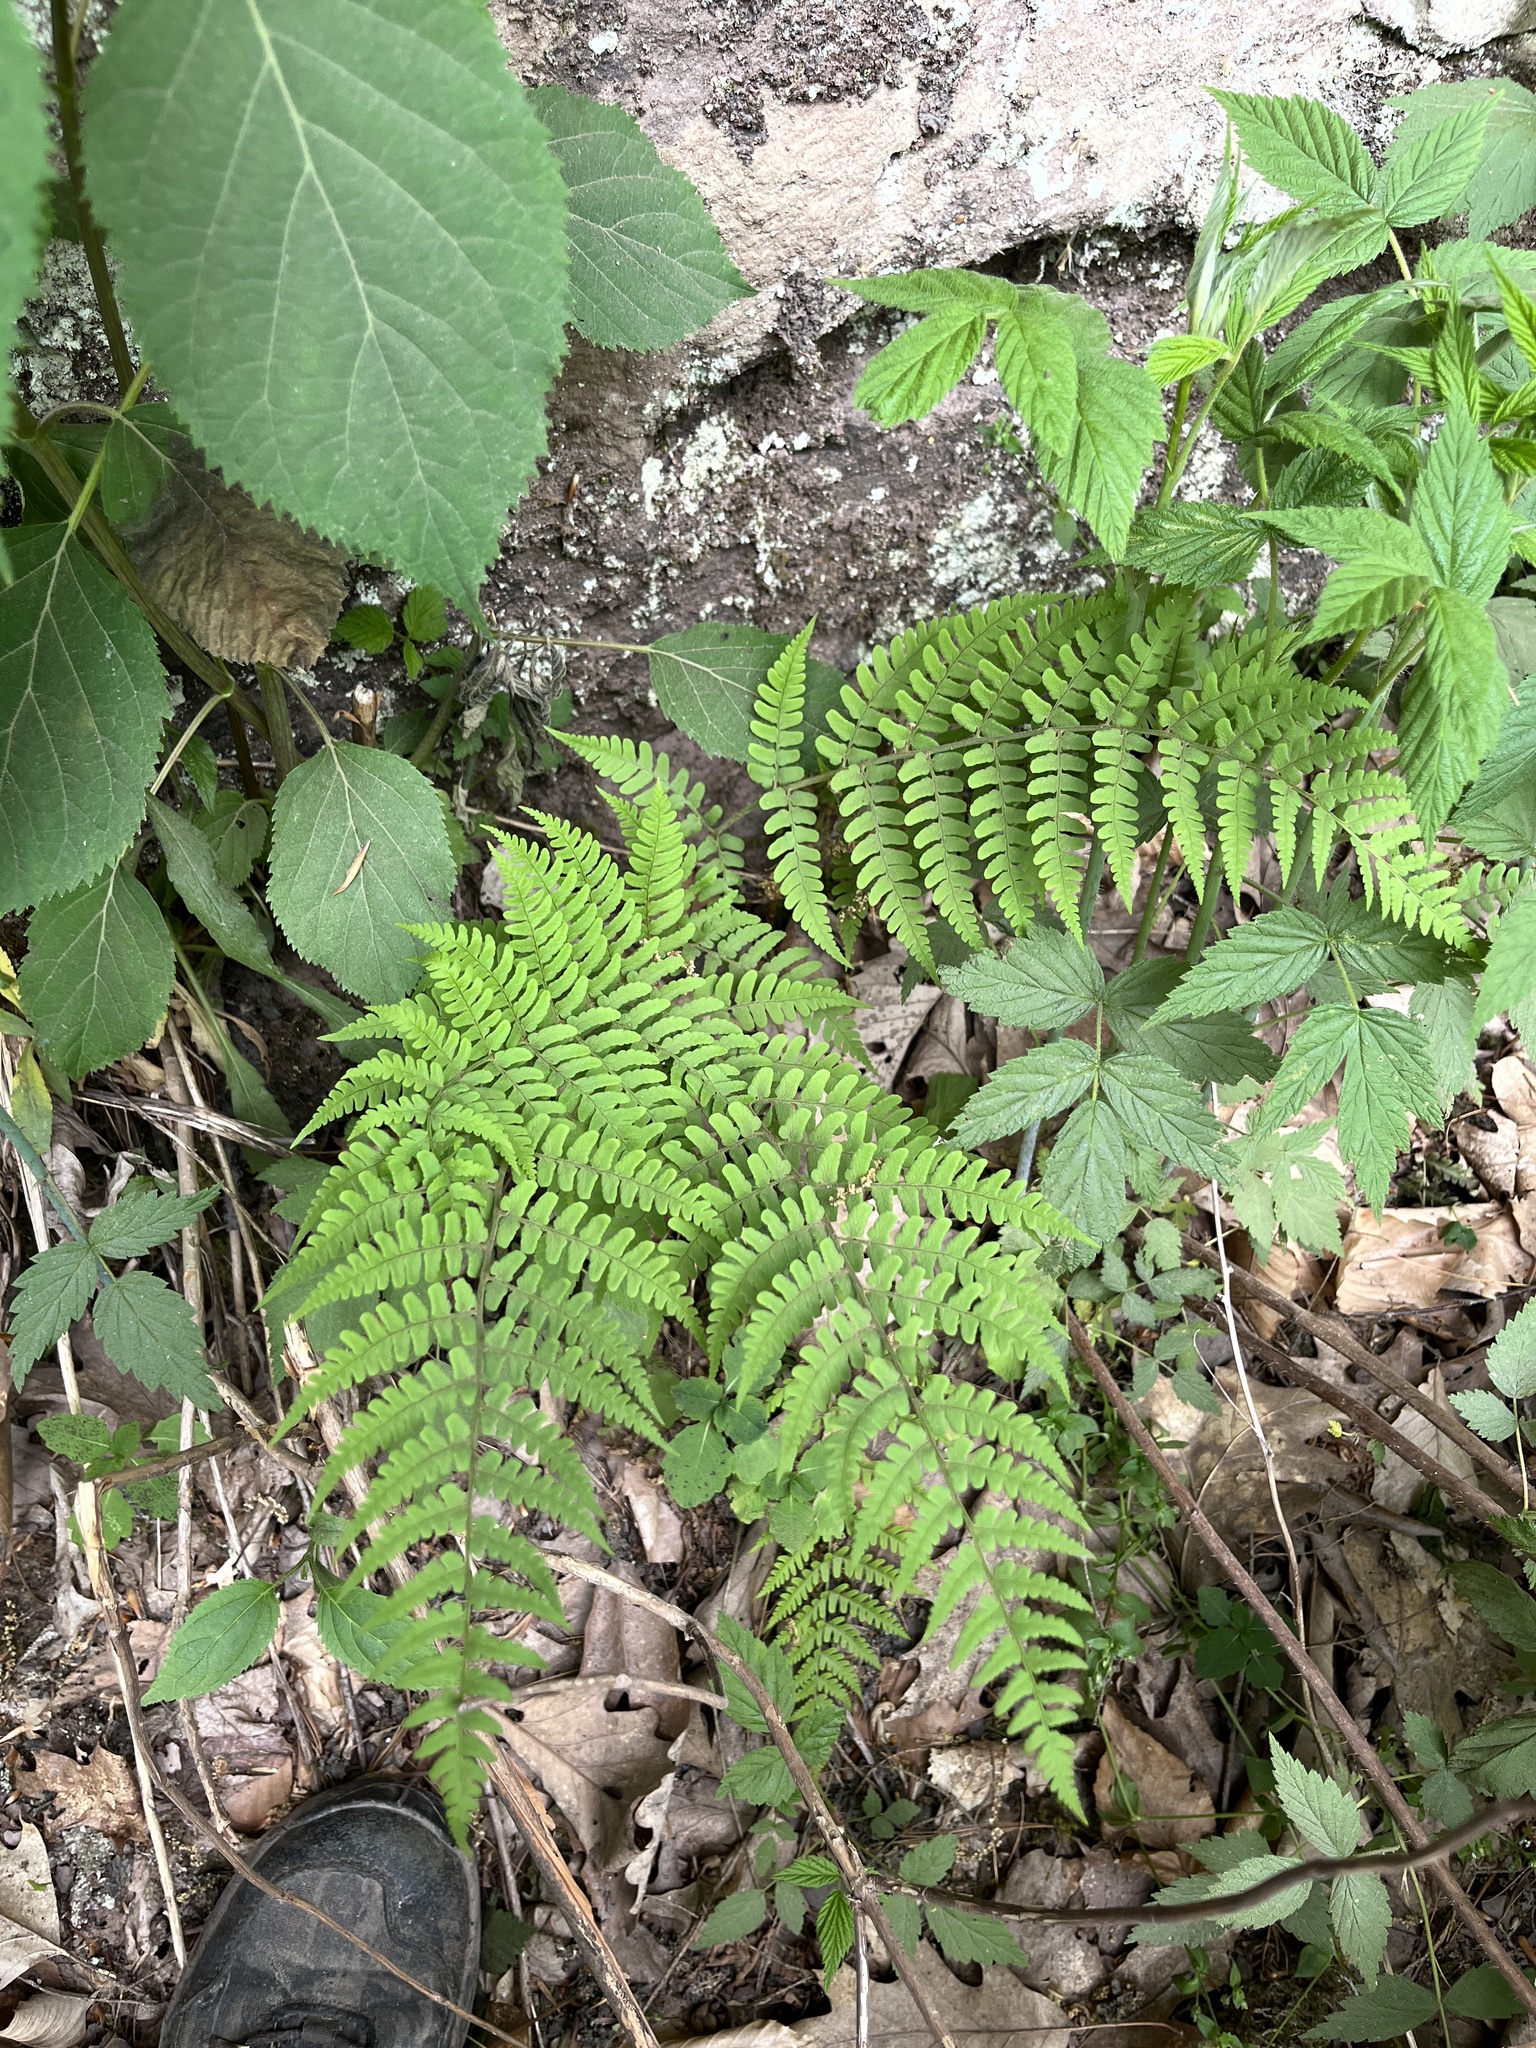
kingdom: Plantae
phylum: Tracheophyta
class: Polypodiopsida
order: Polypodiales
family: Dryopteridaceae
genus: Dryopteris
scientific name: Dryopteris marginalis
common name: Marginal wood fern
